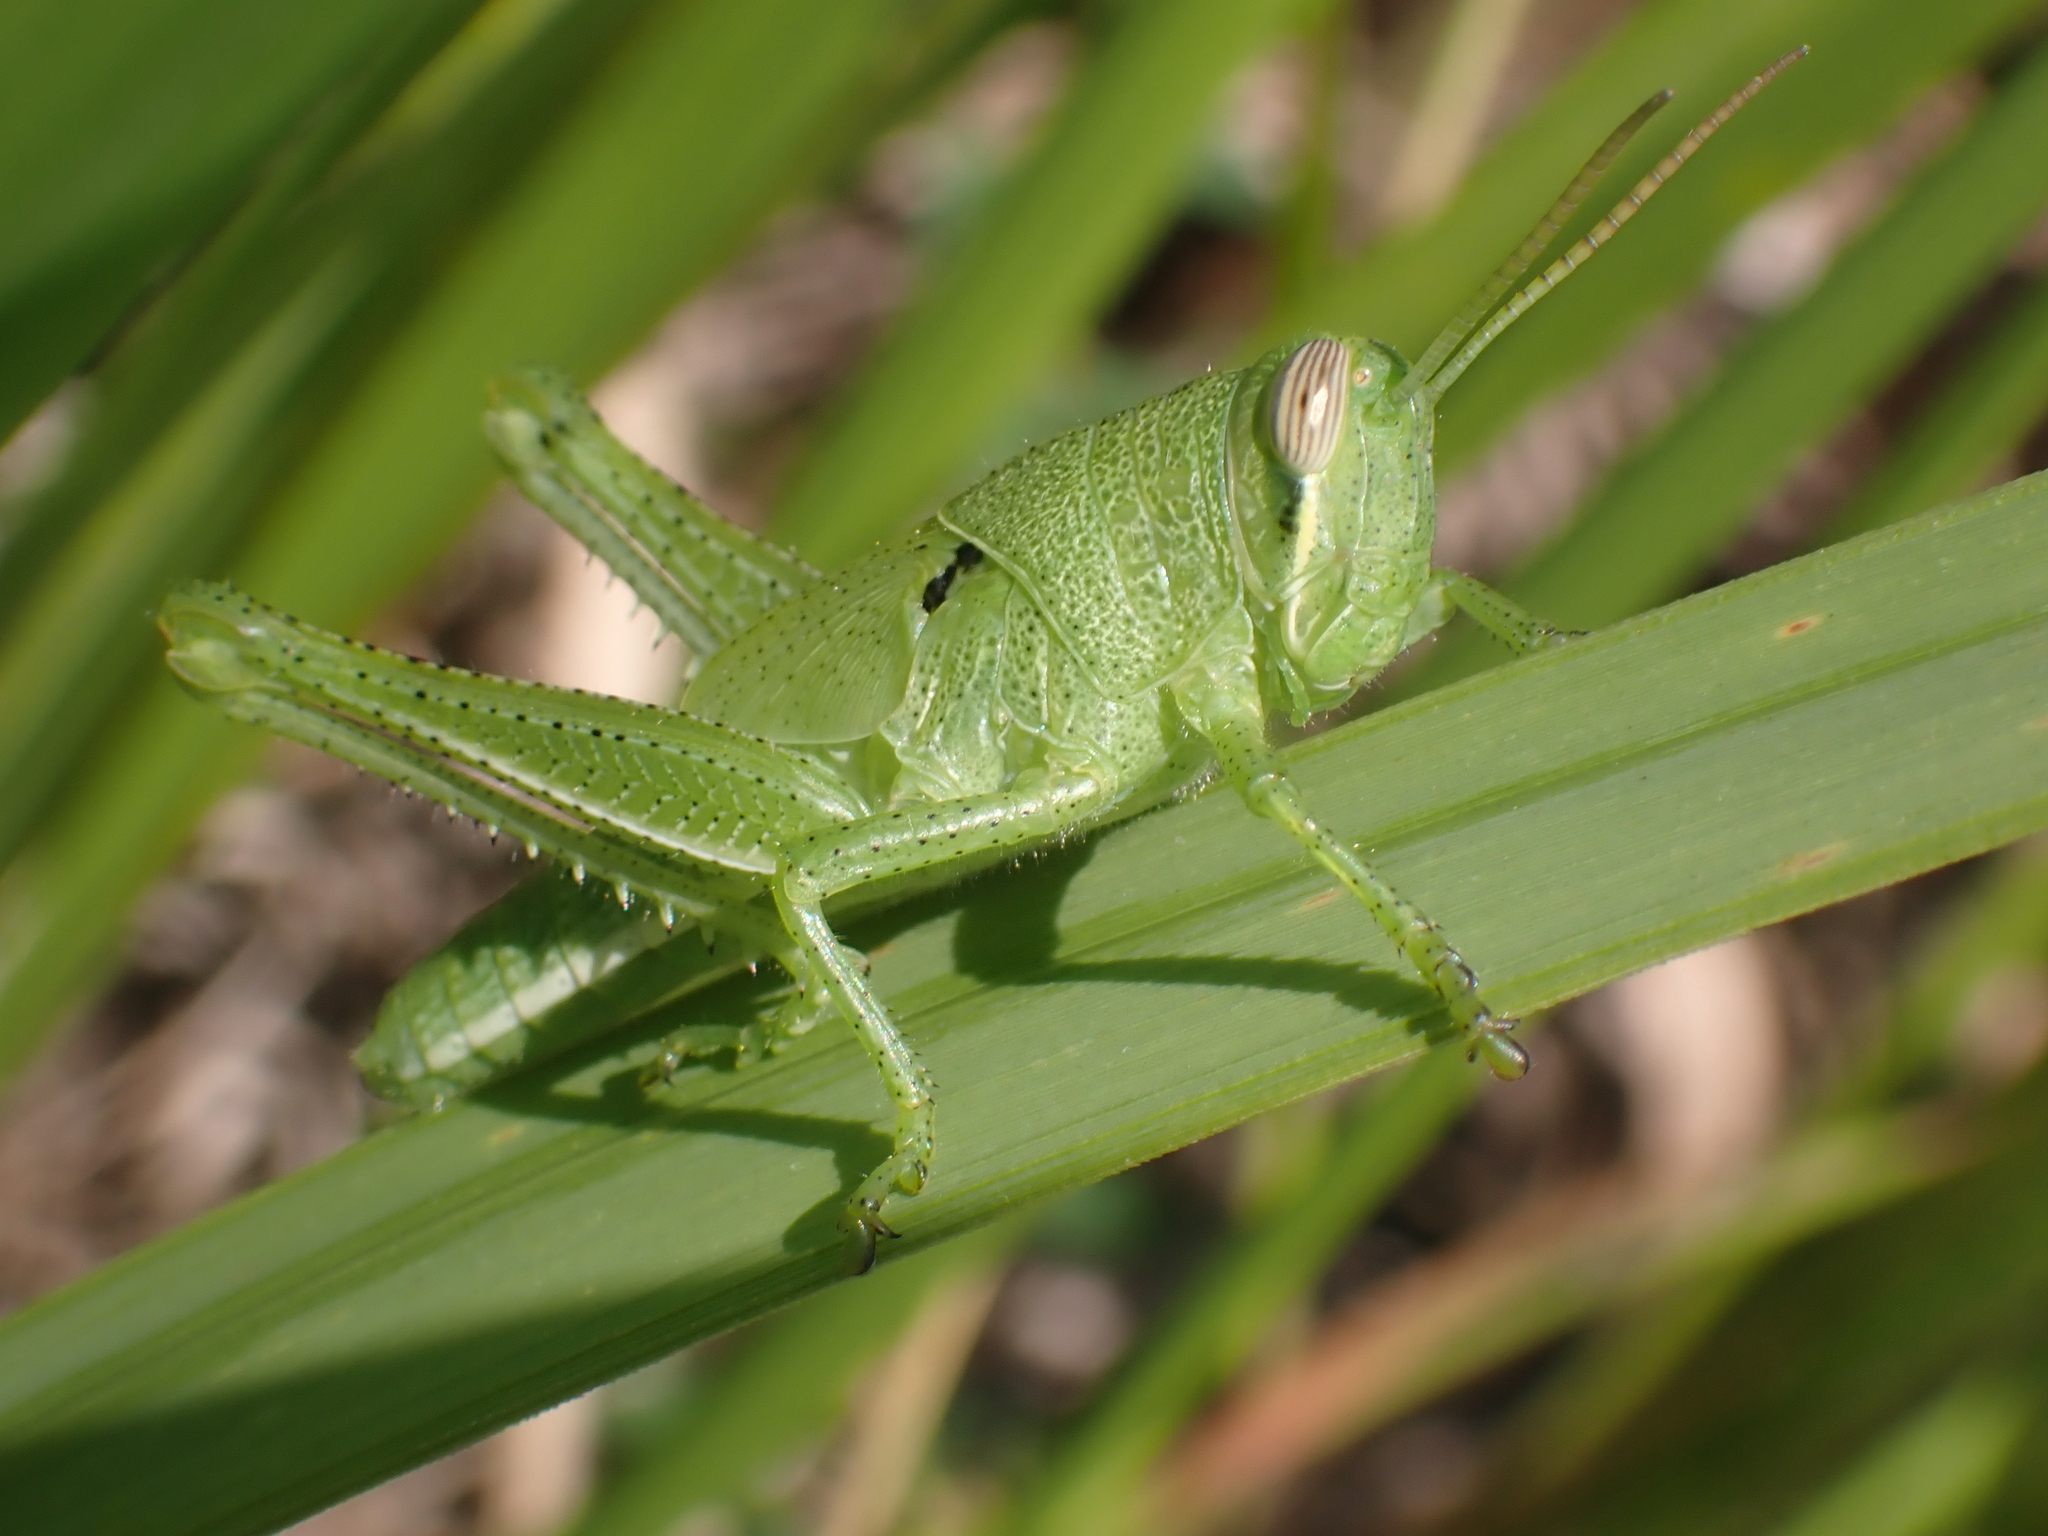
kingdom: Animalia
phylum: Arthropoda
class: Insecta
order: Orthoptera
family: Acrididae
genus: Schistocerca
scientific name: Schistocerca serialis
